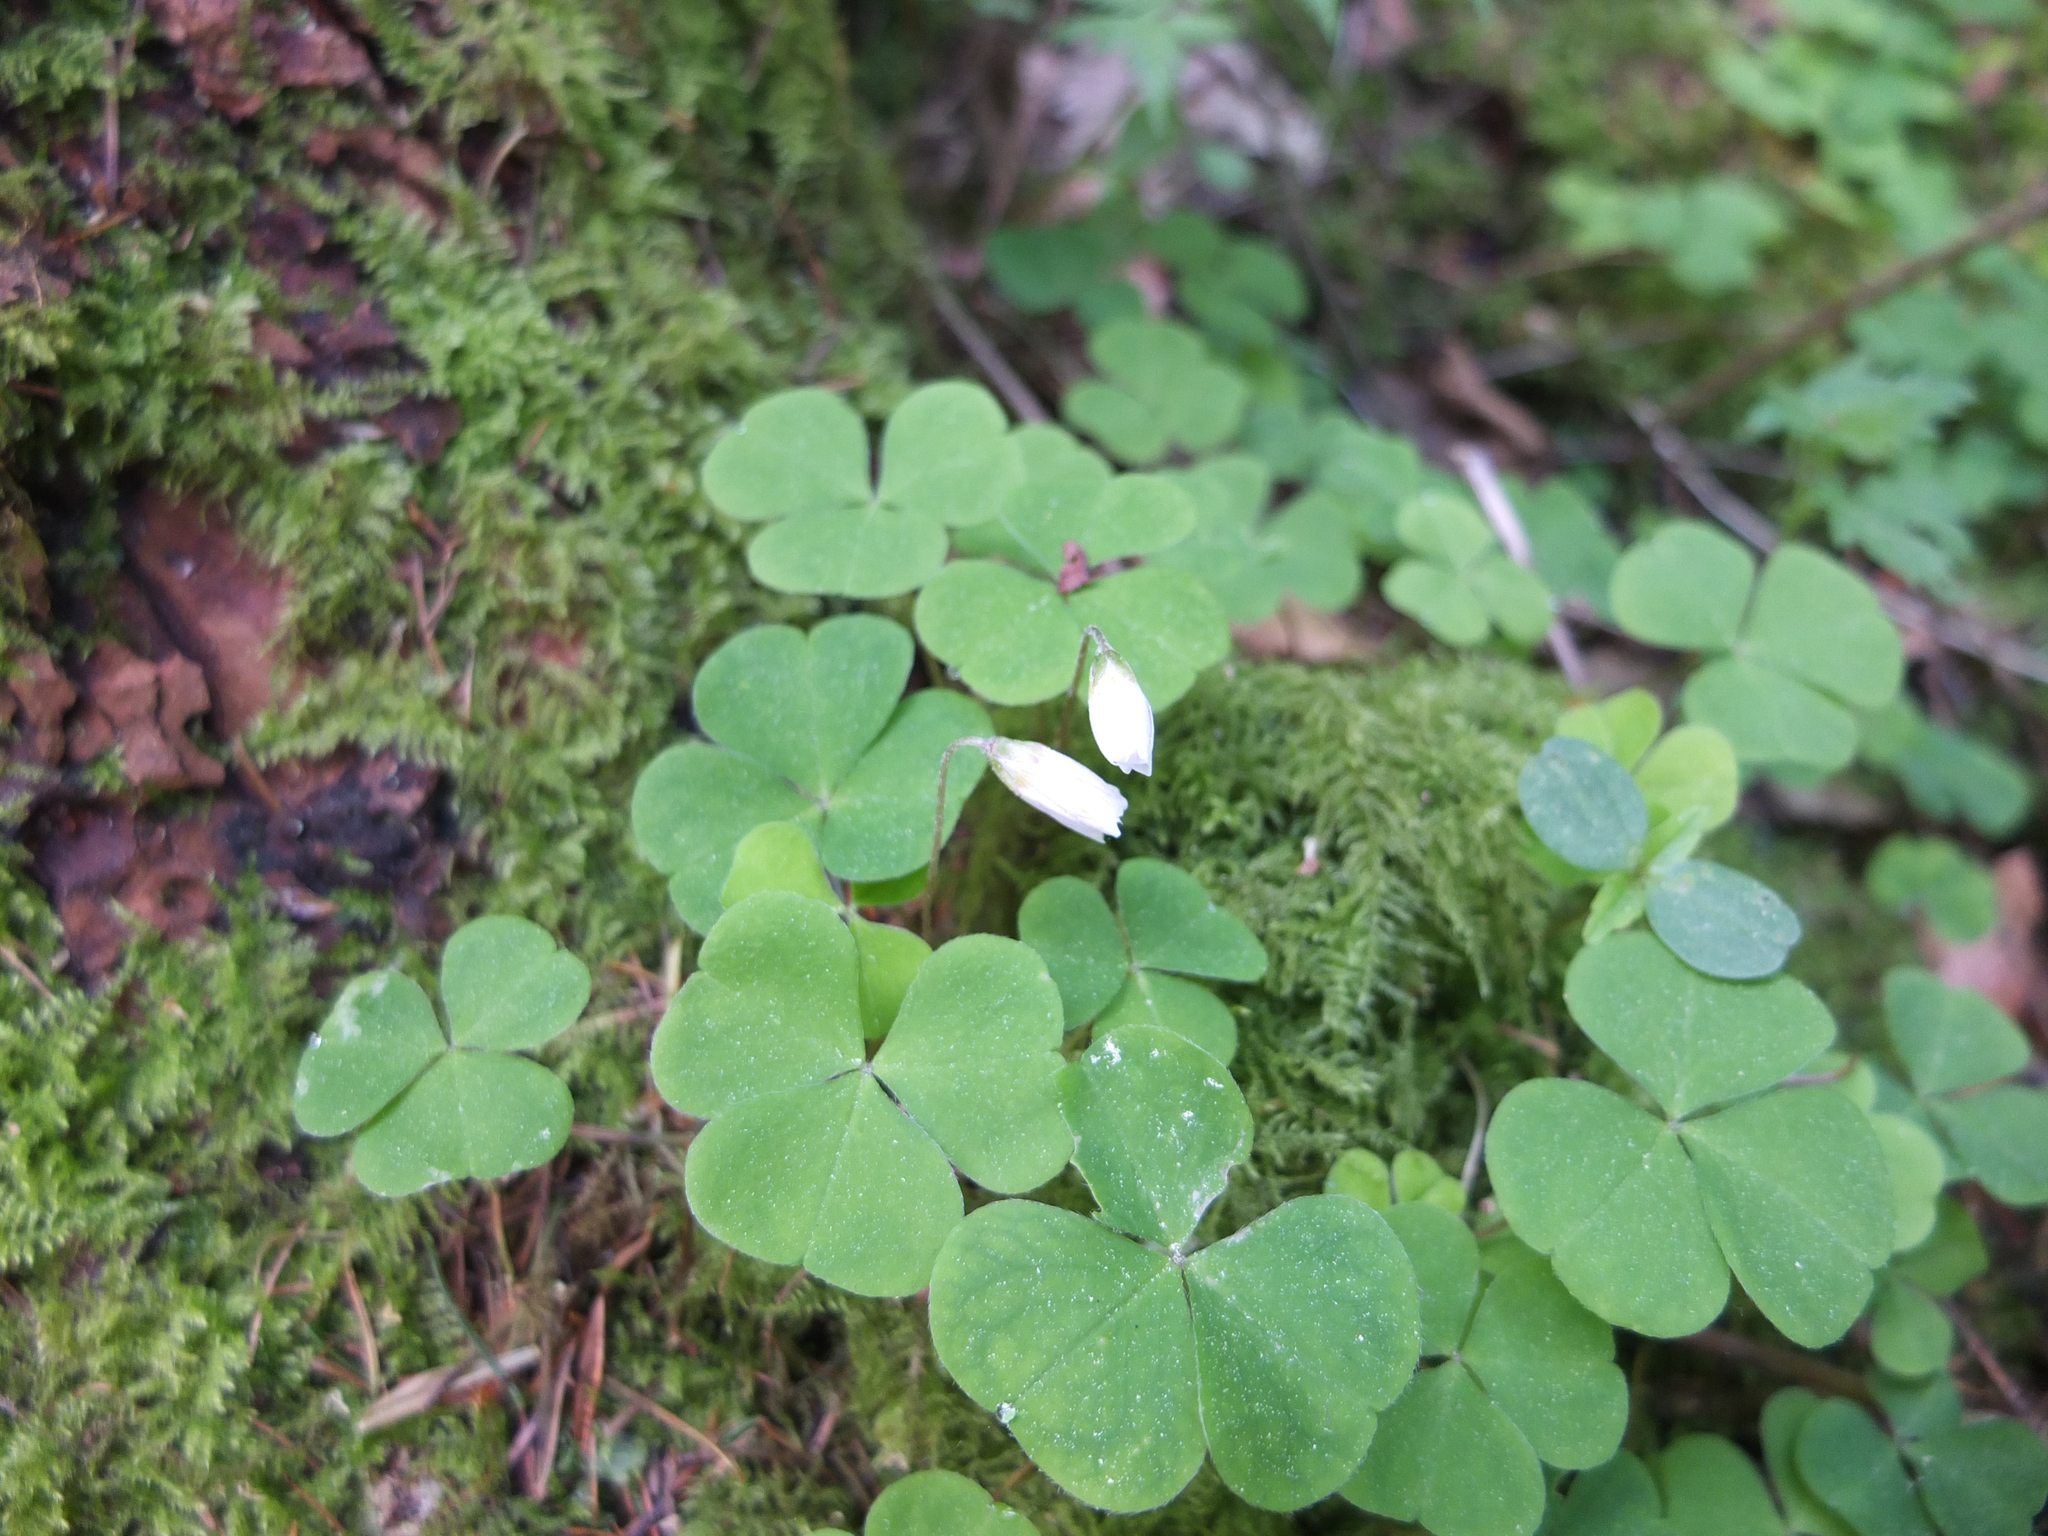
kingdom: Plantae
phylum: Tracheophyta
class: Magnoliopsida
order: Oxalidales
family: Oxalidaceae
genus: Oxalis
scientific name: Oxalis acetosella
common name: Wood-sorrel
